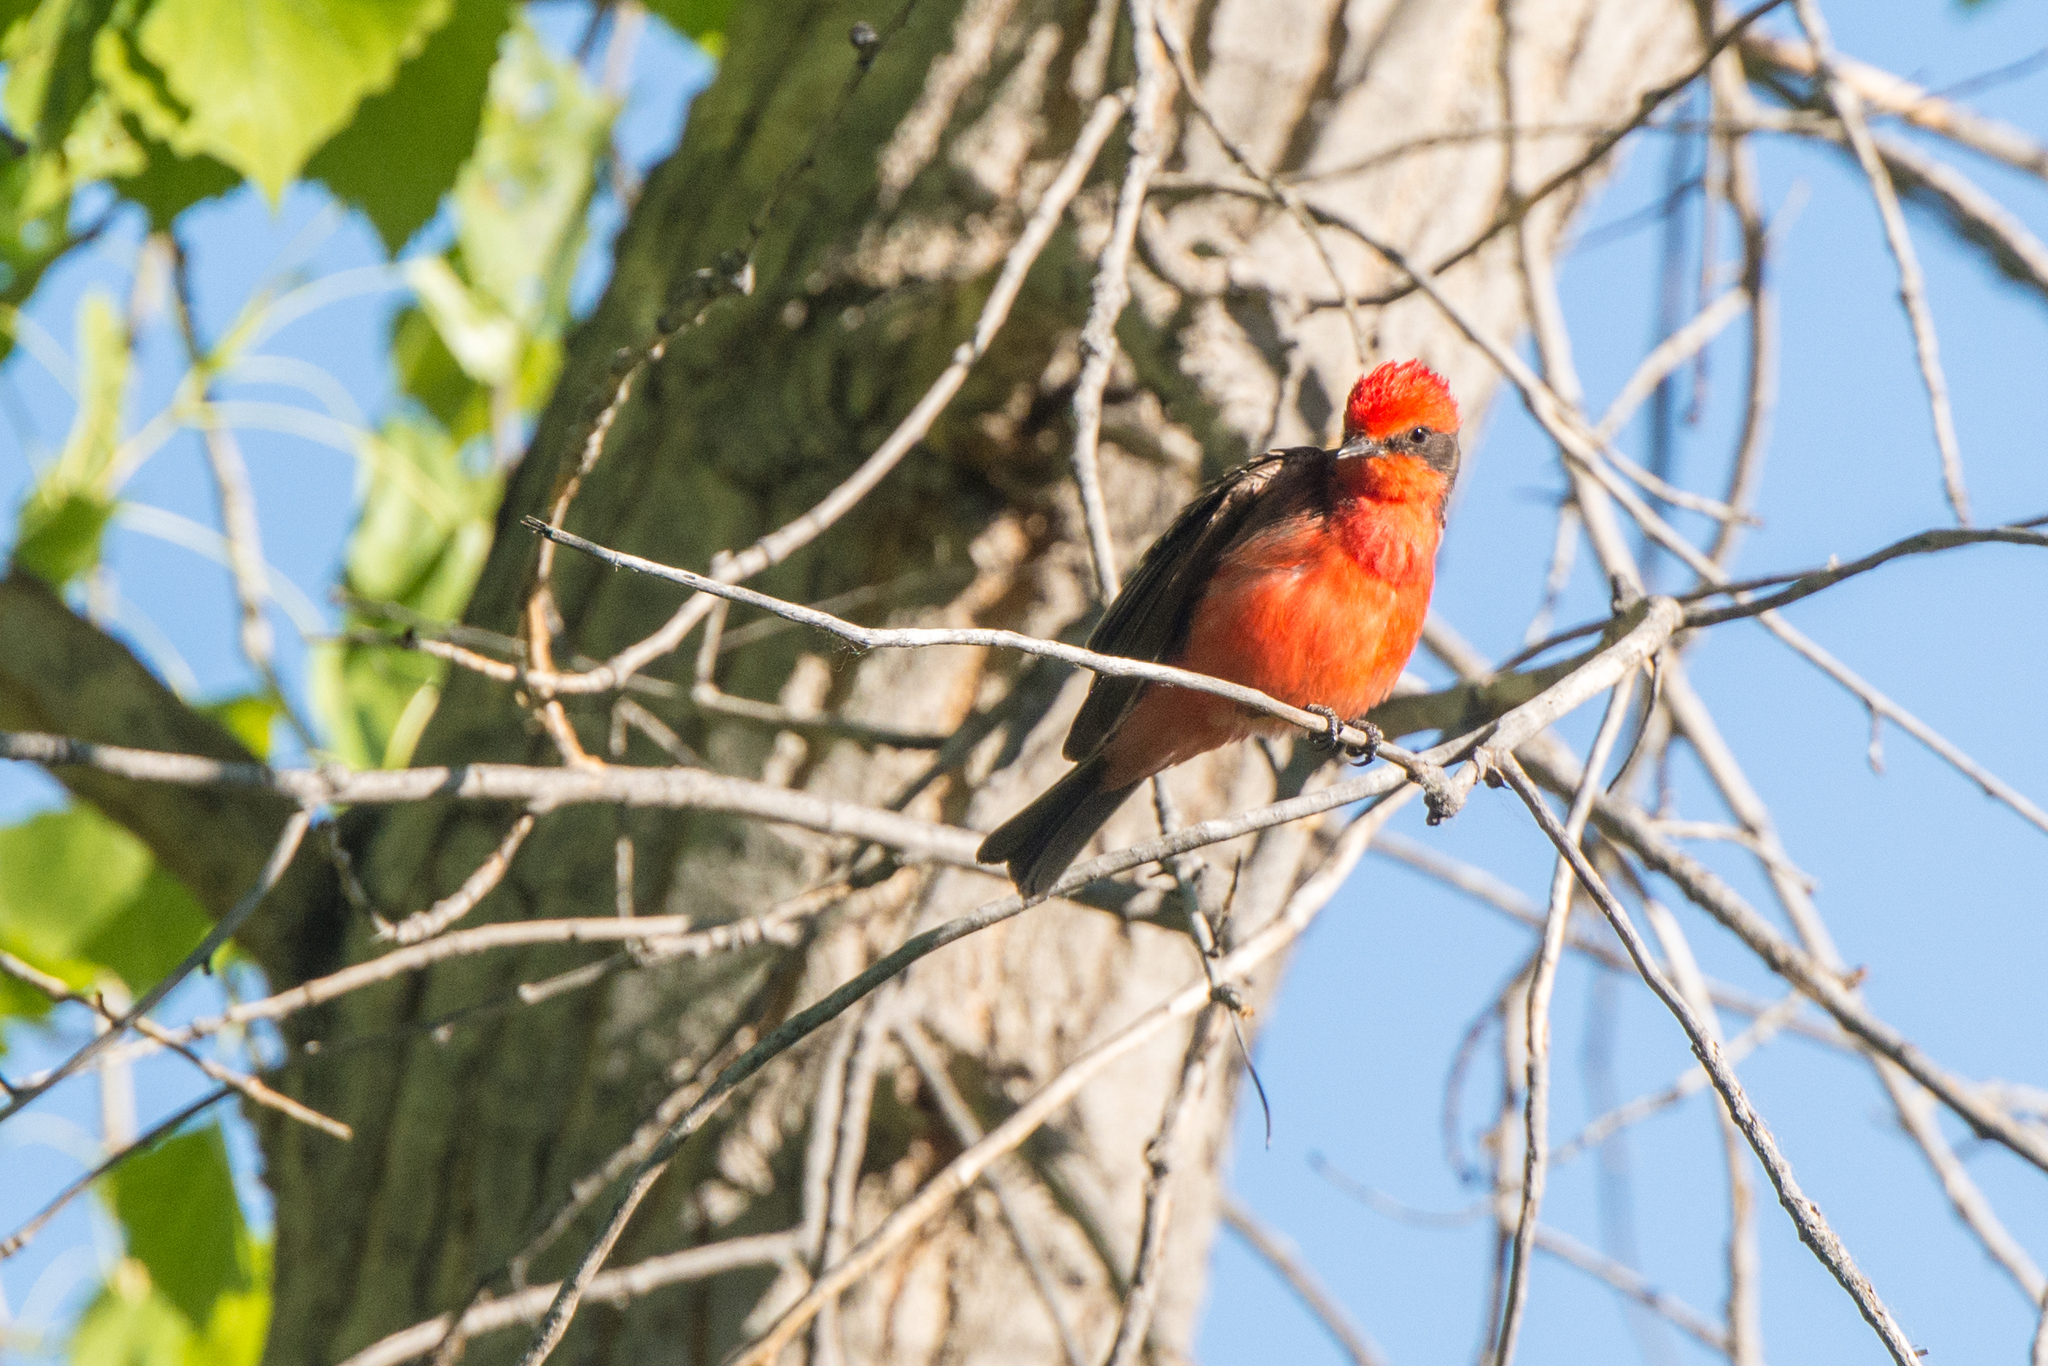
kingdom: Animalia
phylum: Chordata
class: Aves
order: Passeriformes
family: Tyrannidae
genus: Pyrocephalus
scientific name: Pyrocephalus rubinus
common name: Vermilion flycatcher
